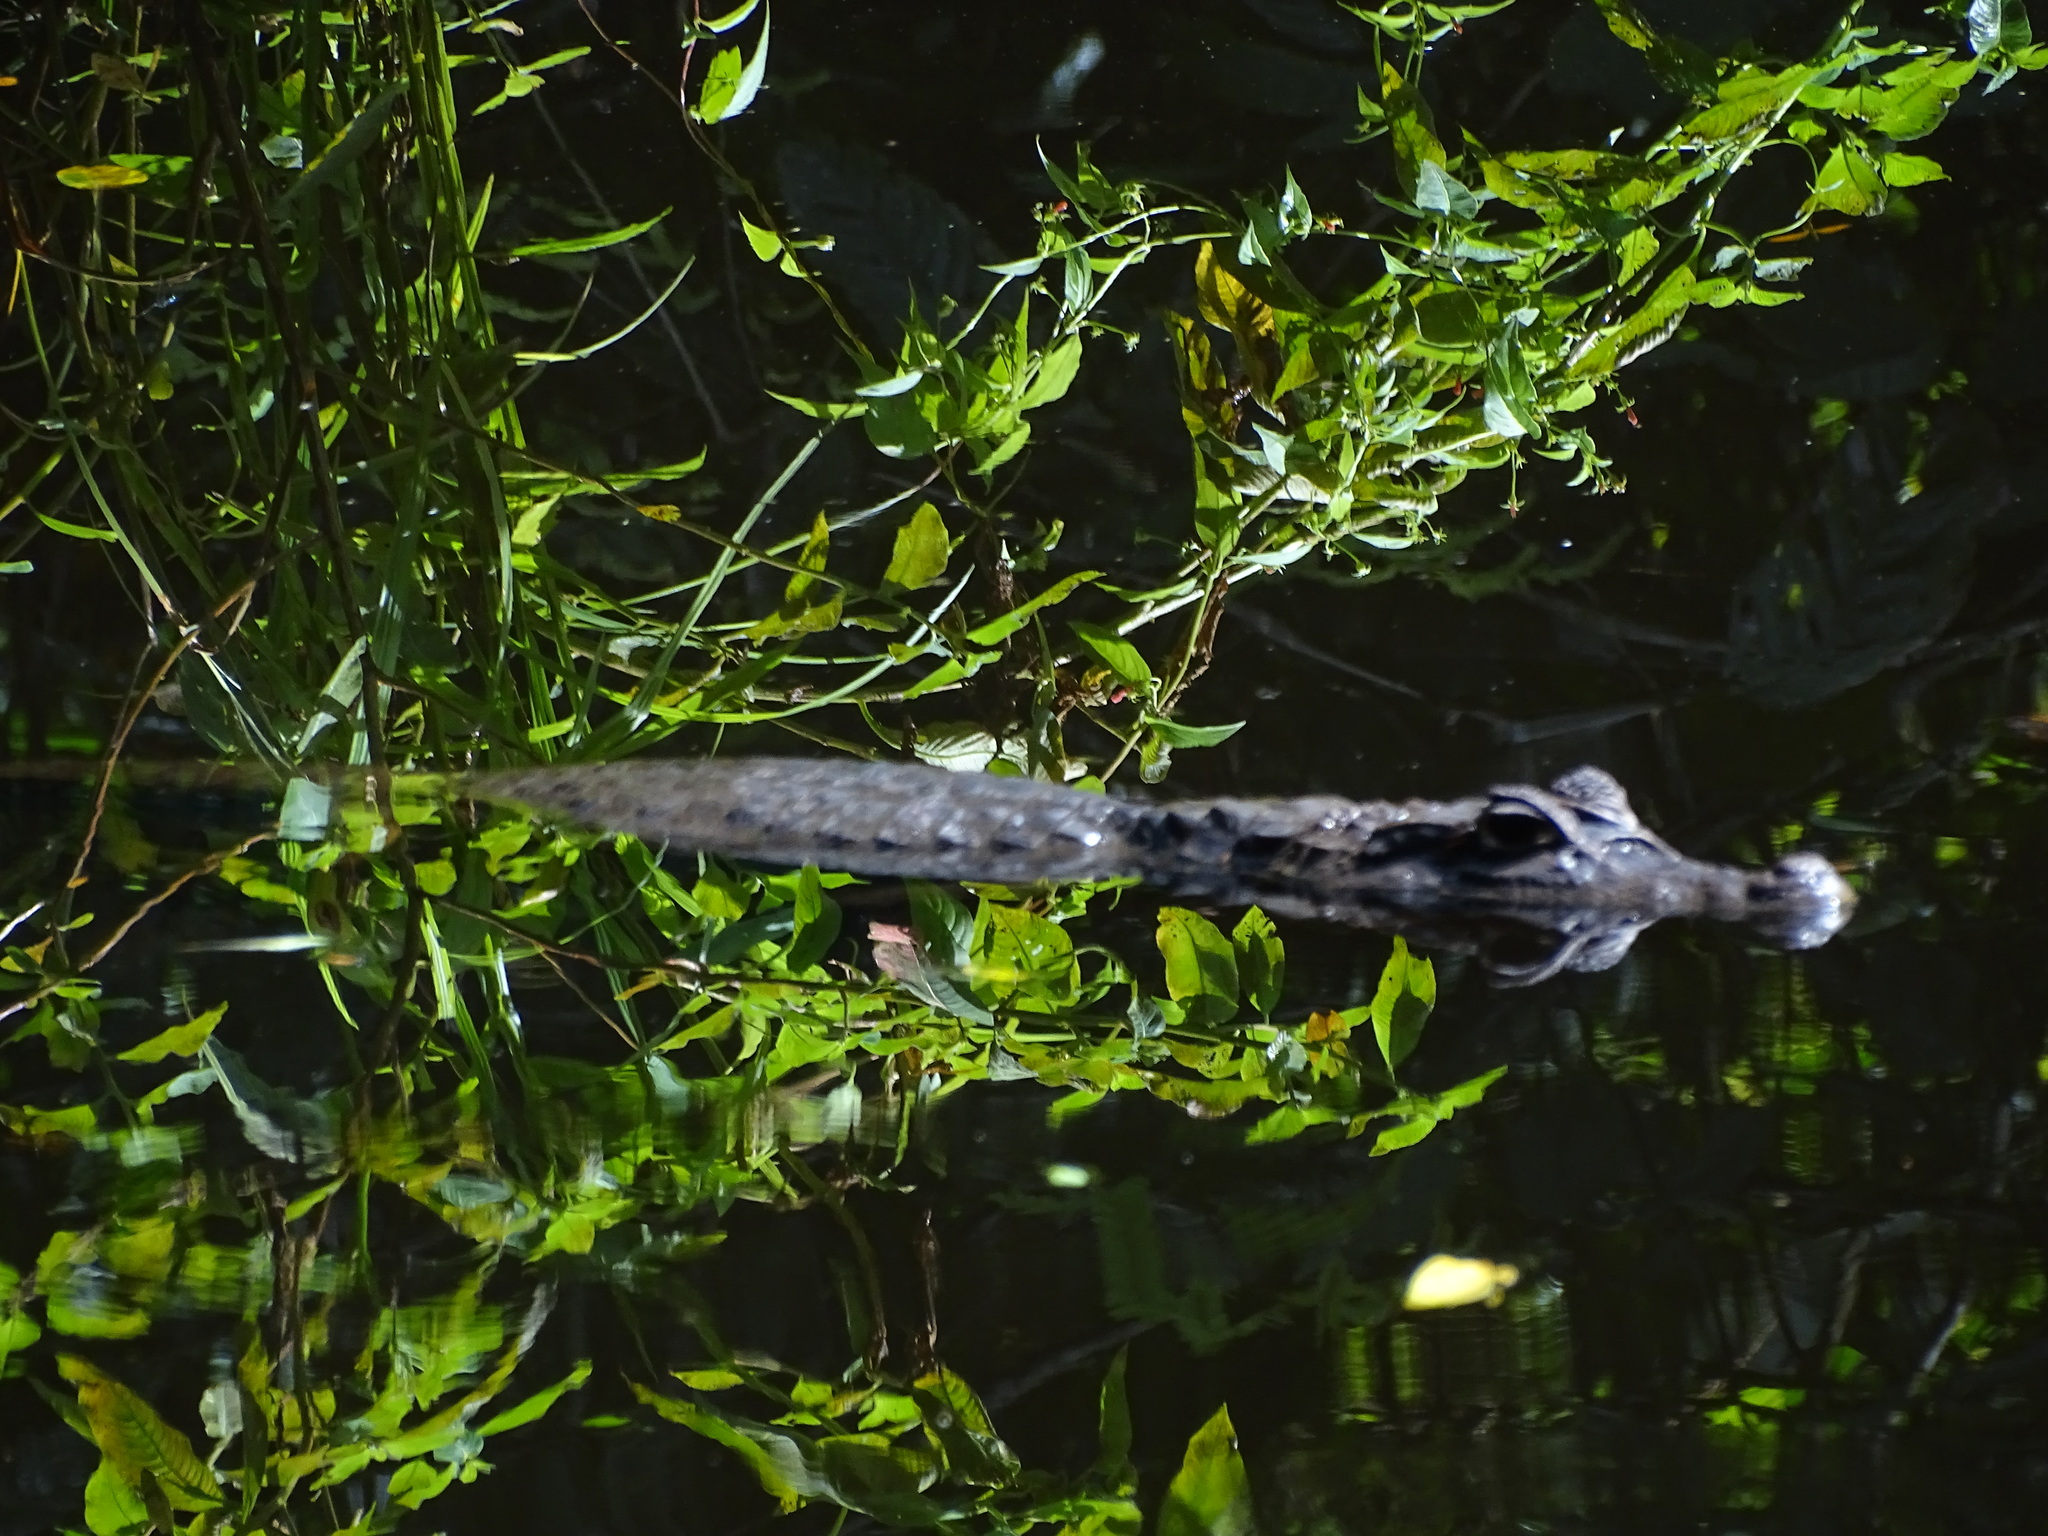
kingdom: Animalia
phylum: Chordata
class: Crocodylia
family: Alligatoridae
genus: Caiman
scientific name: Caiman crocodilus
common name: Common caiman
